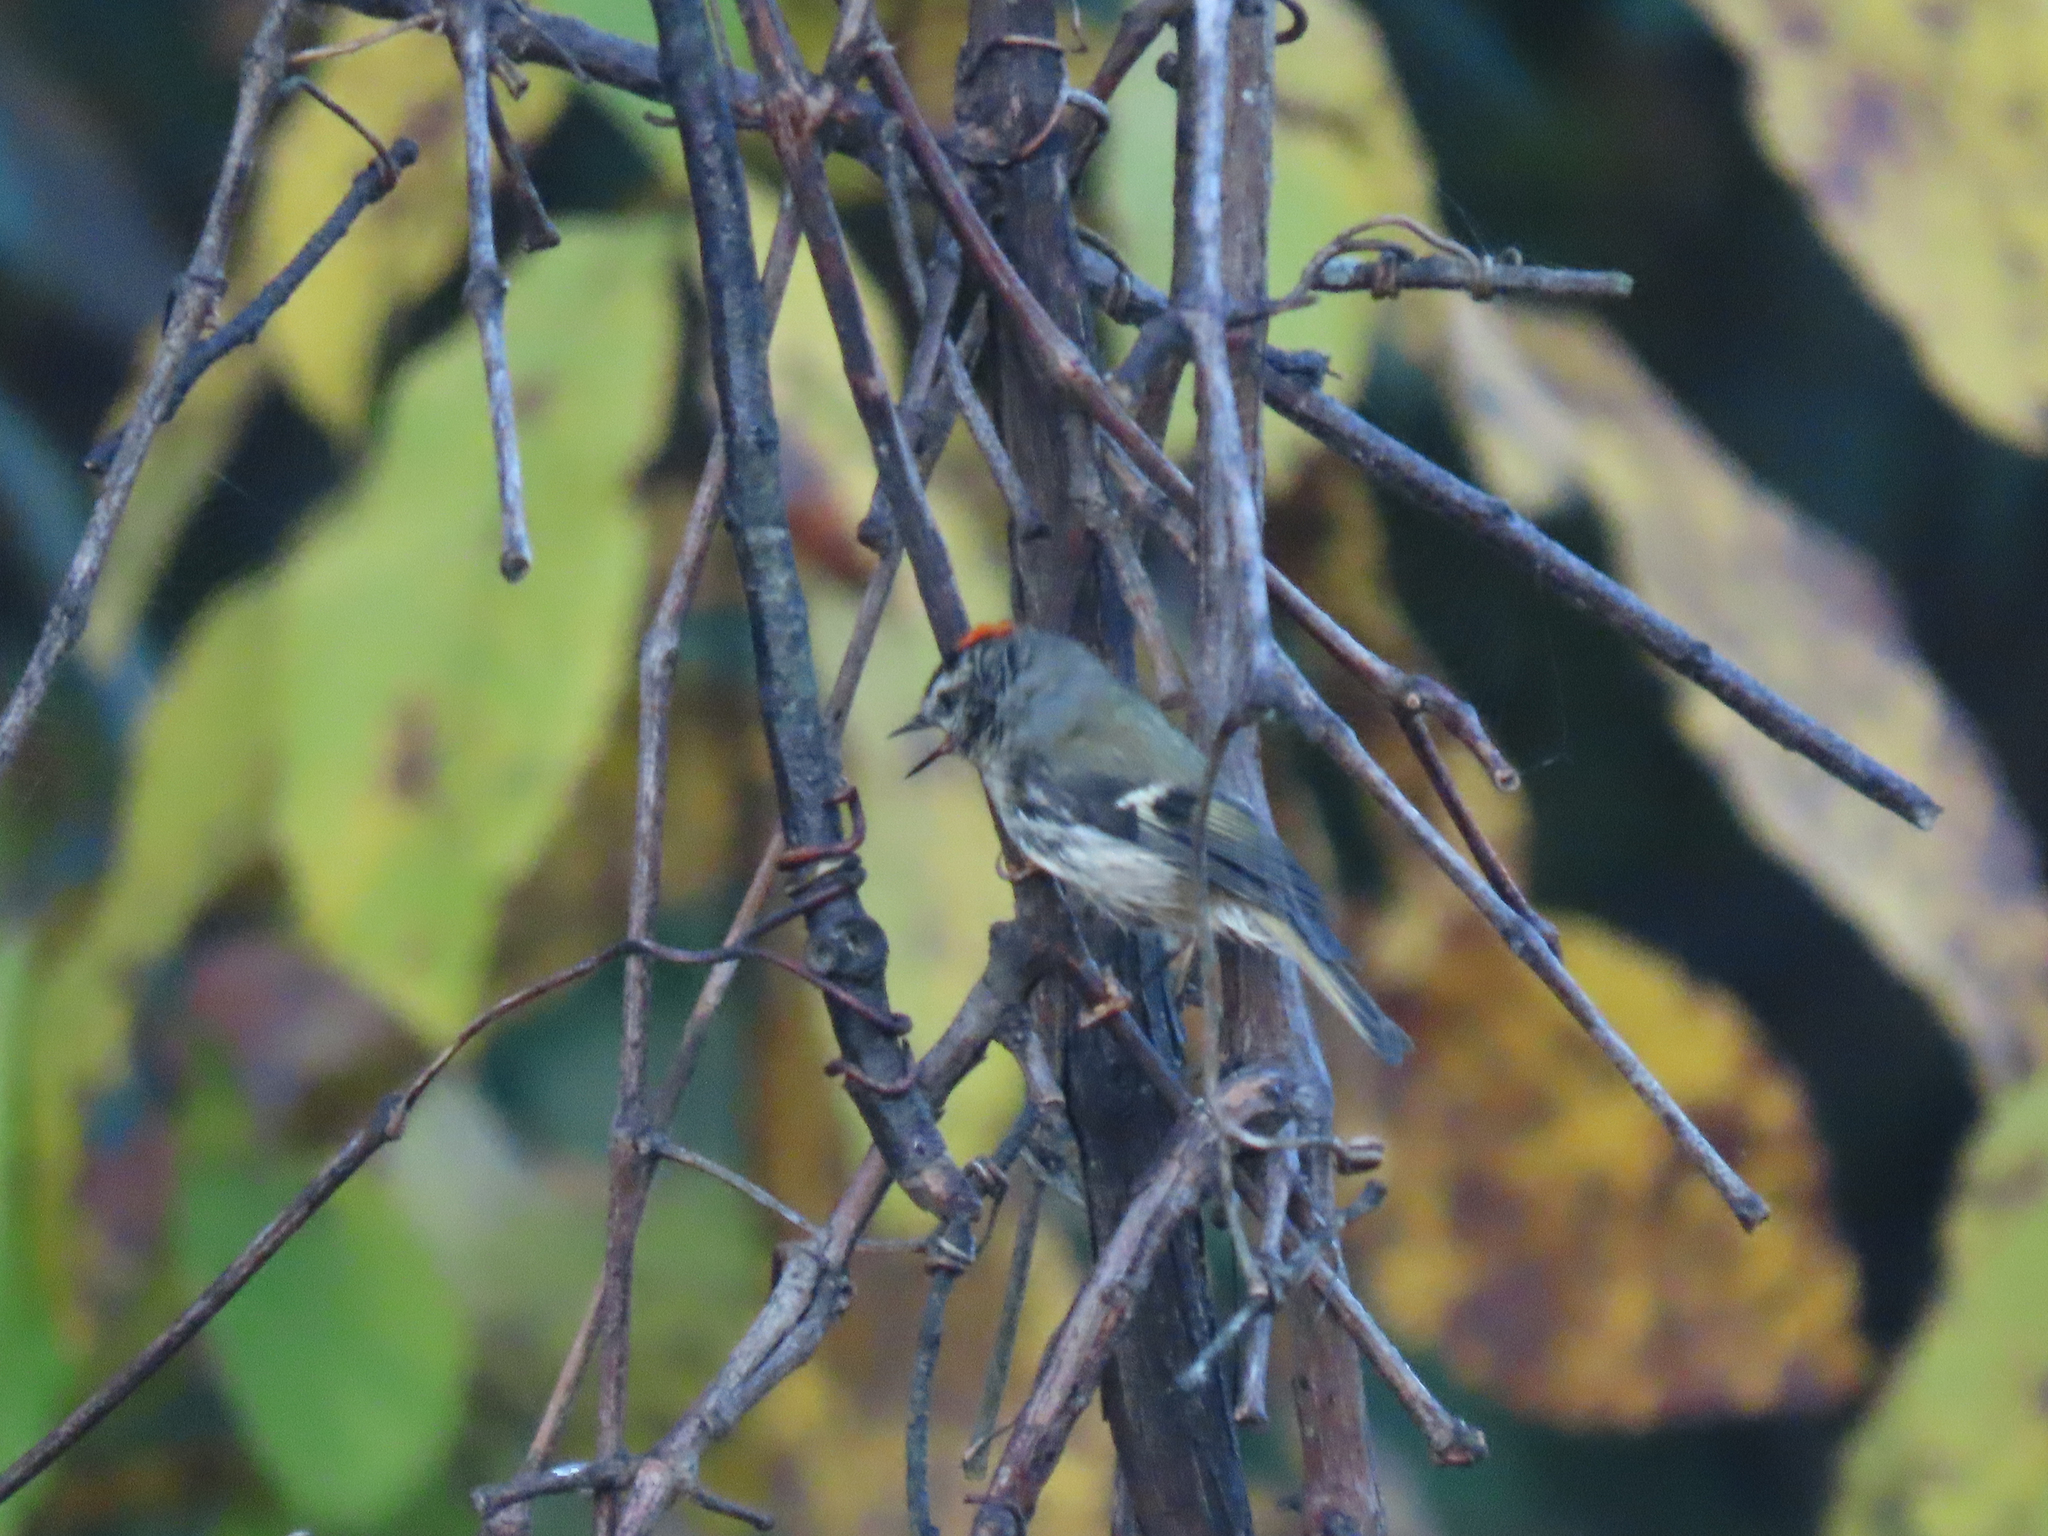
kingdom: Animalia
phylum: Chordata
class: Aves
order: Passeriformes
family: Regulidae
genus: Regulus
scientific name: Regulus satrapa
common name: Golden-crowned kinglet
